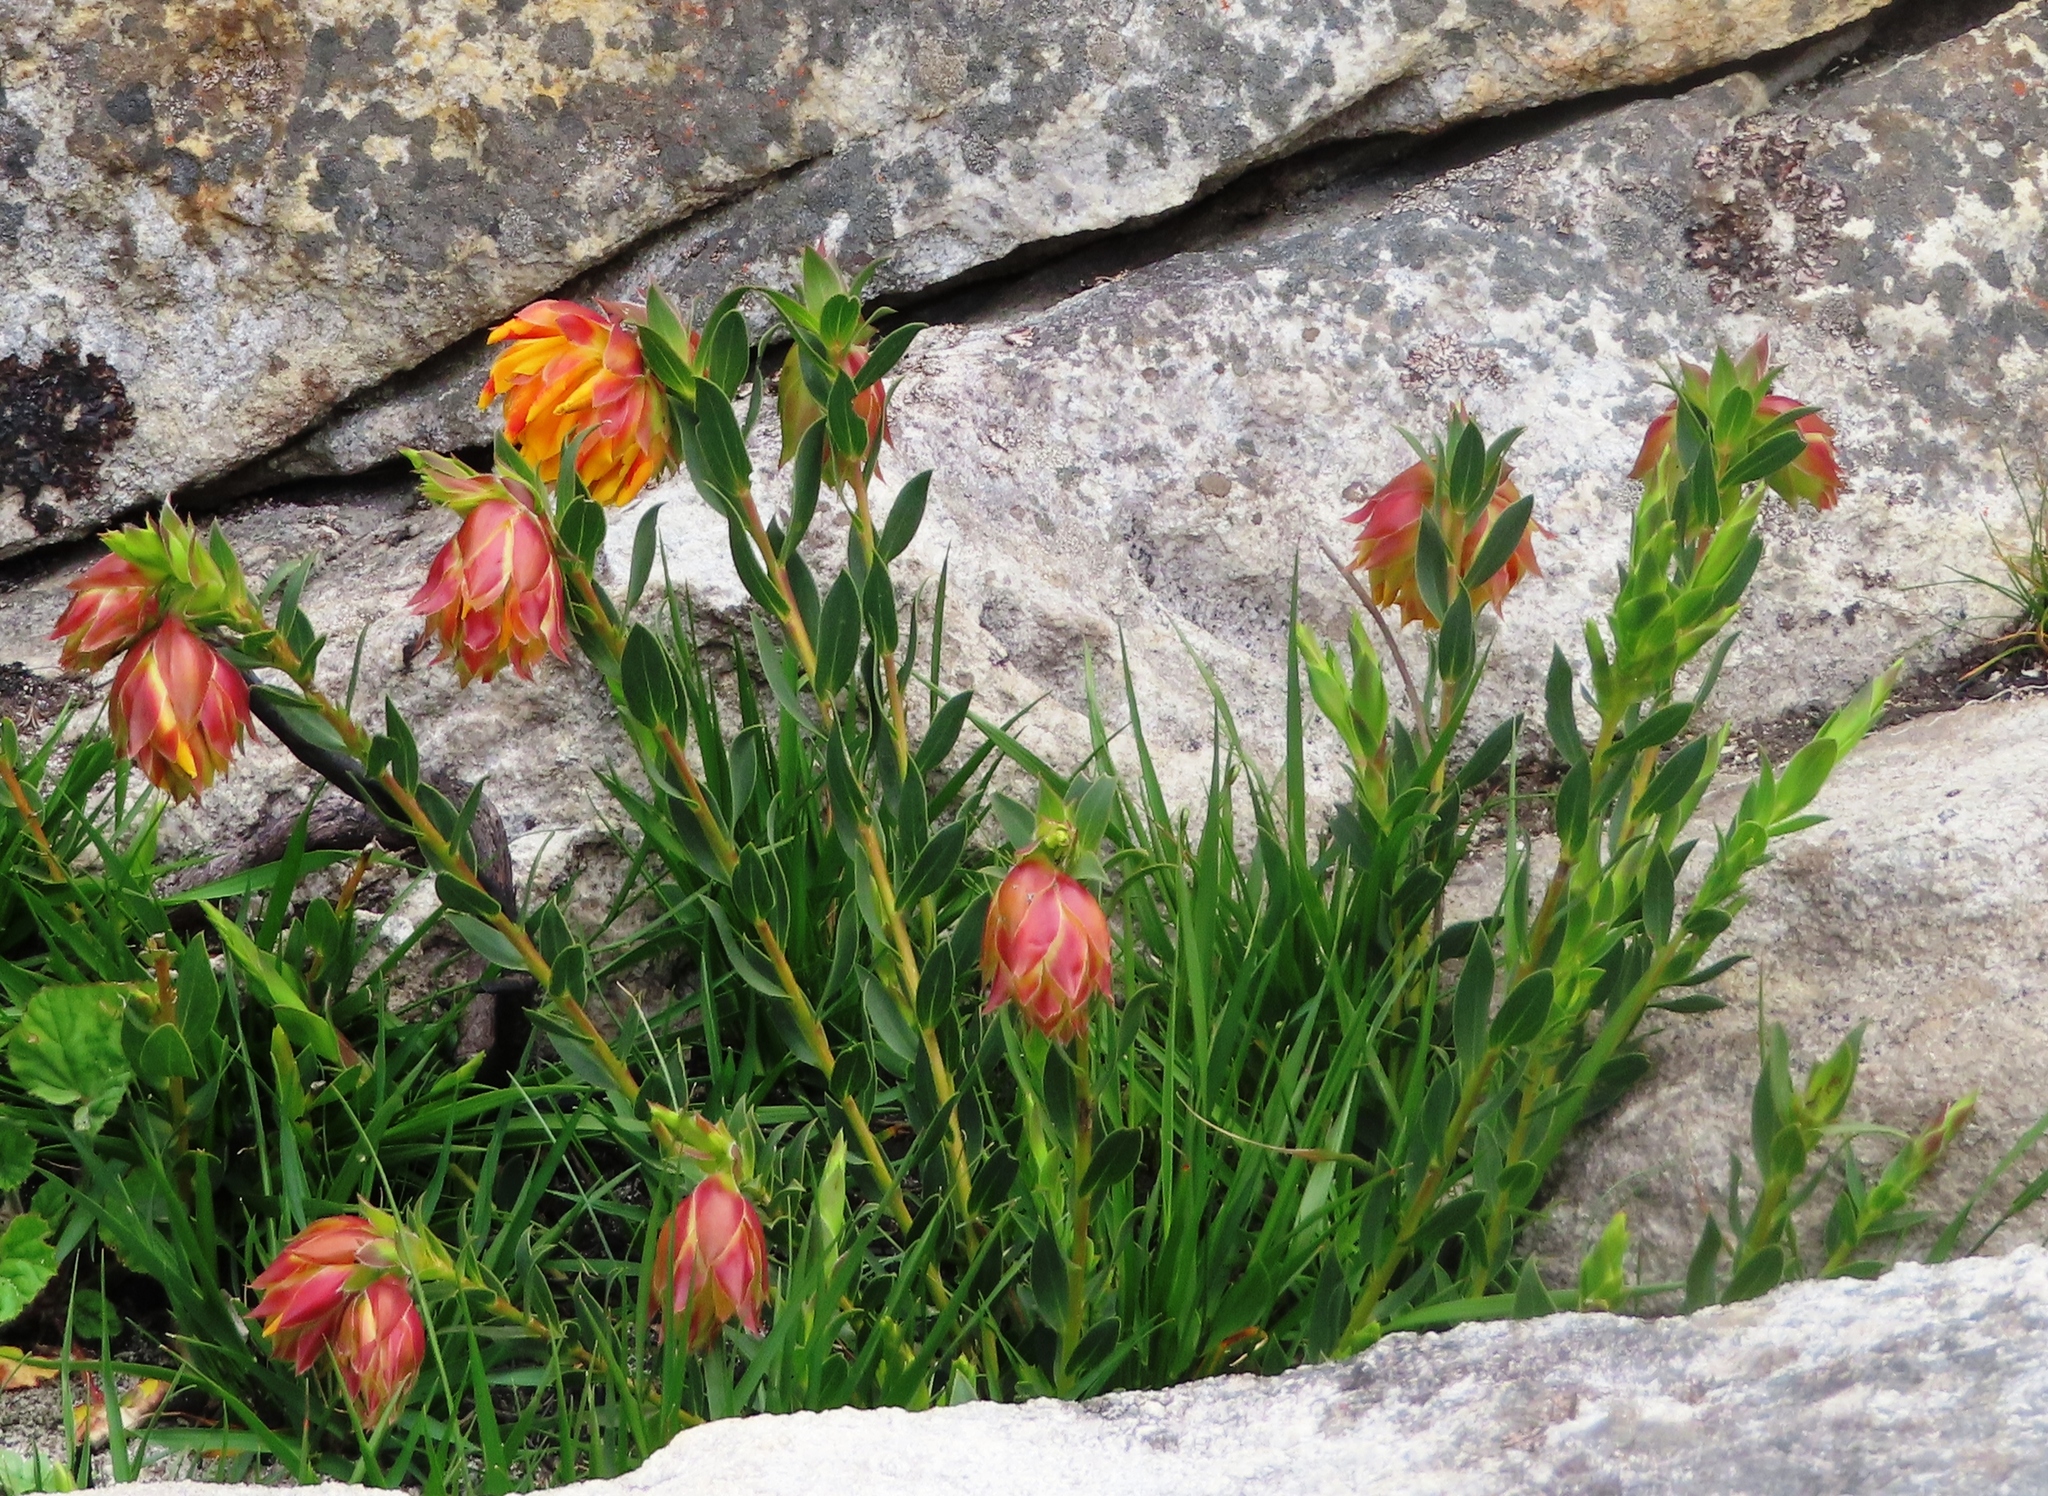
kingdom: Plantae
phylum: Tracheophyta
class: Magnoliopsida
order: Fabales
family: Fabaceae
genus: Liparia
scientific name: Liparia splendens
